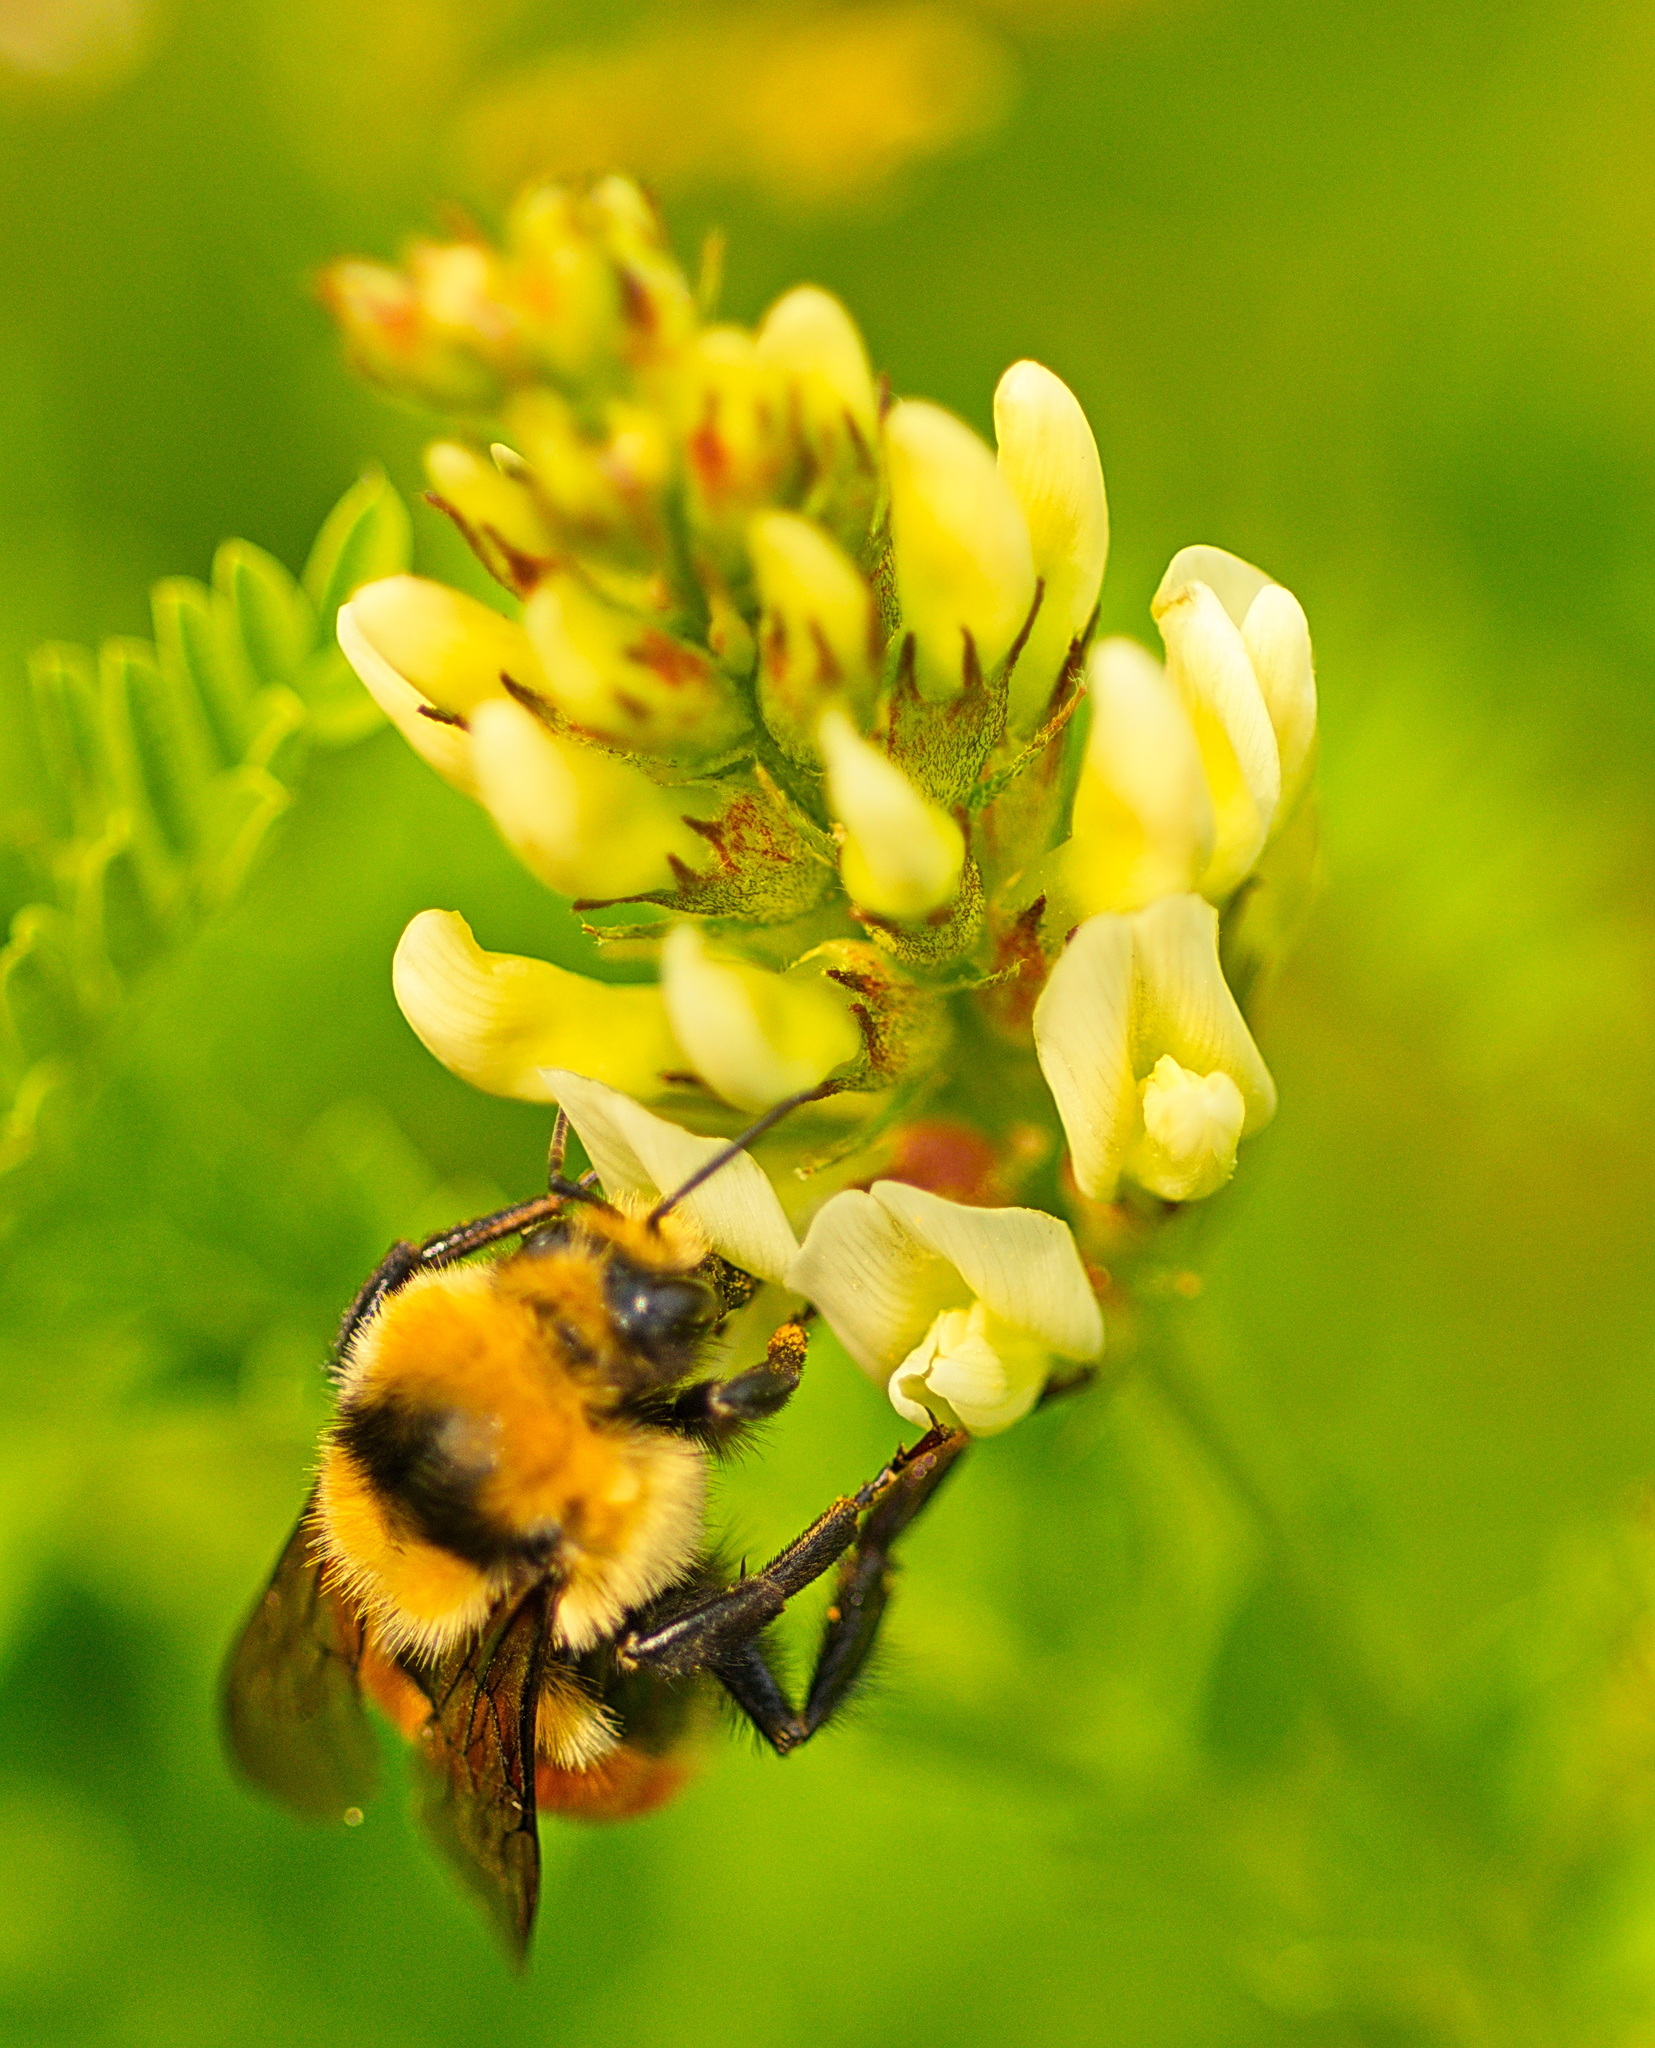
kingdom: Animalia
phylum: Arthropoda
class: Insecta
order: Hymenoptera
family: Apidae
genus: Bombus
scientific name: Bombus huntii
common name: Hunt bumble bee
